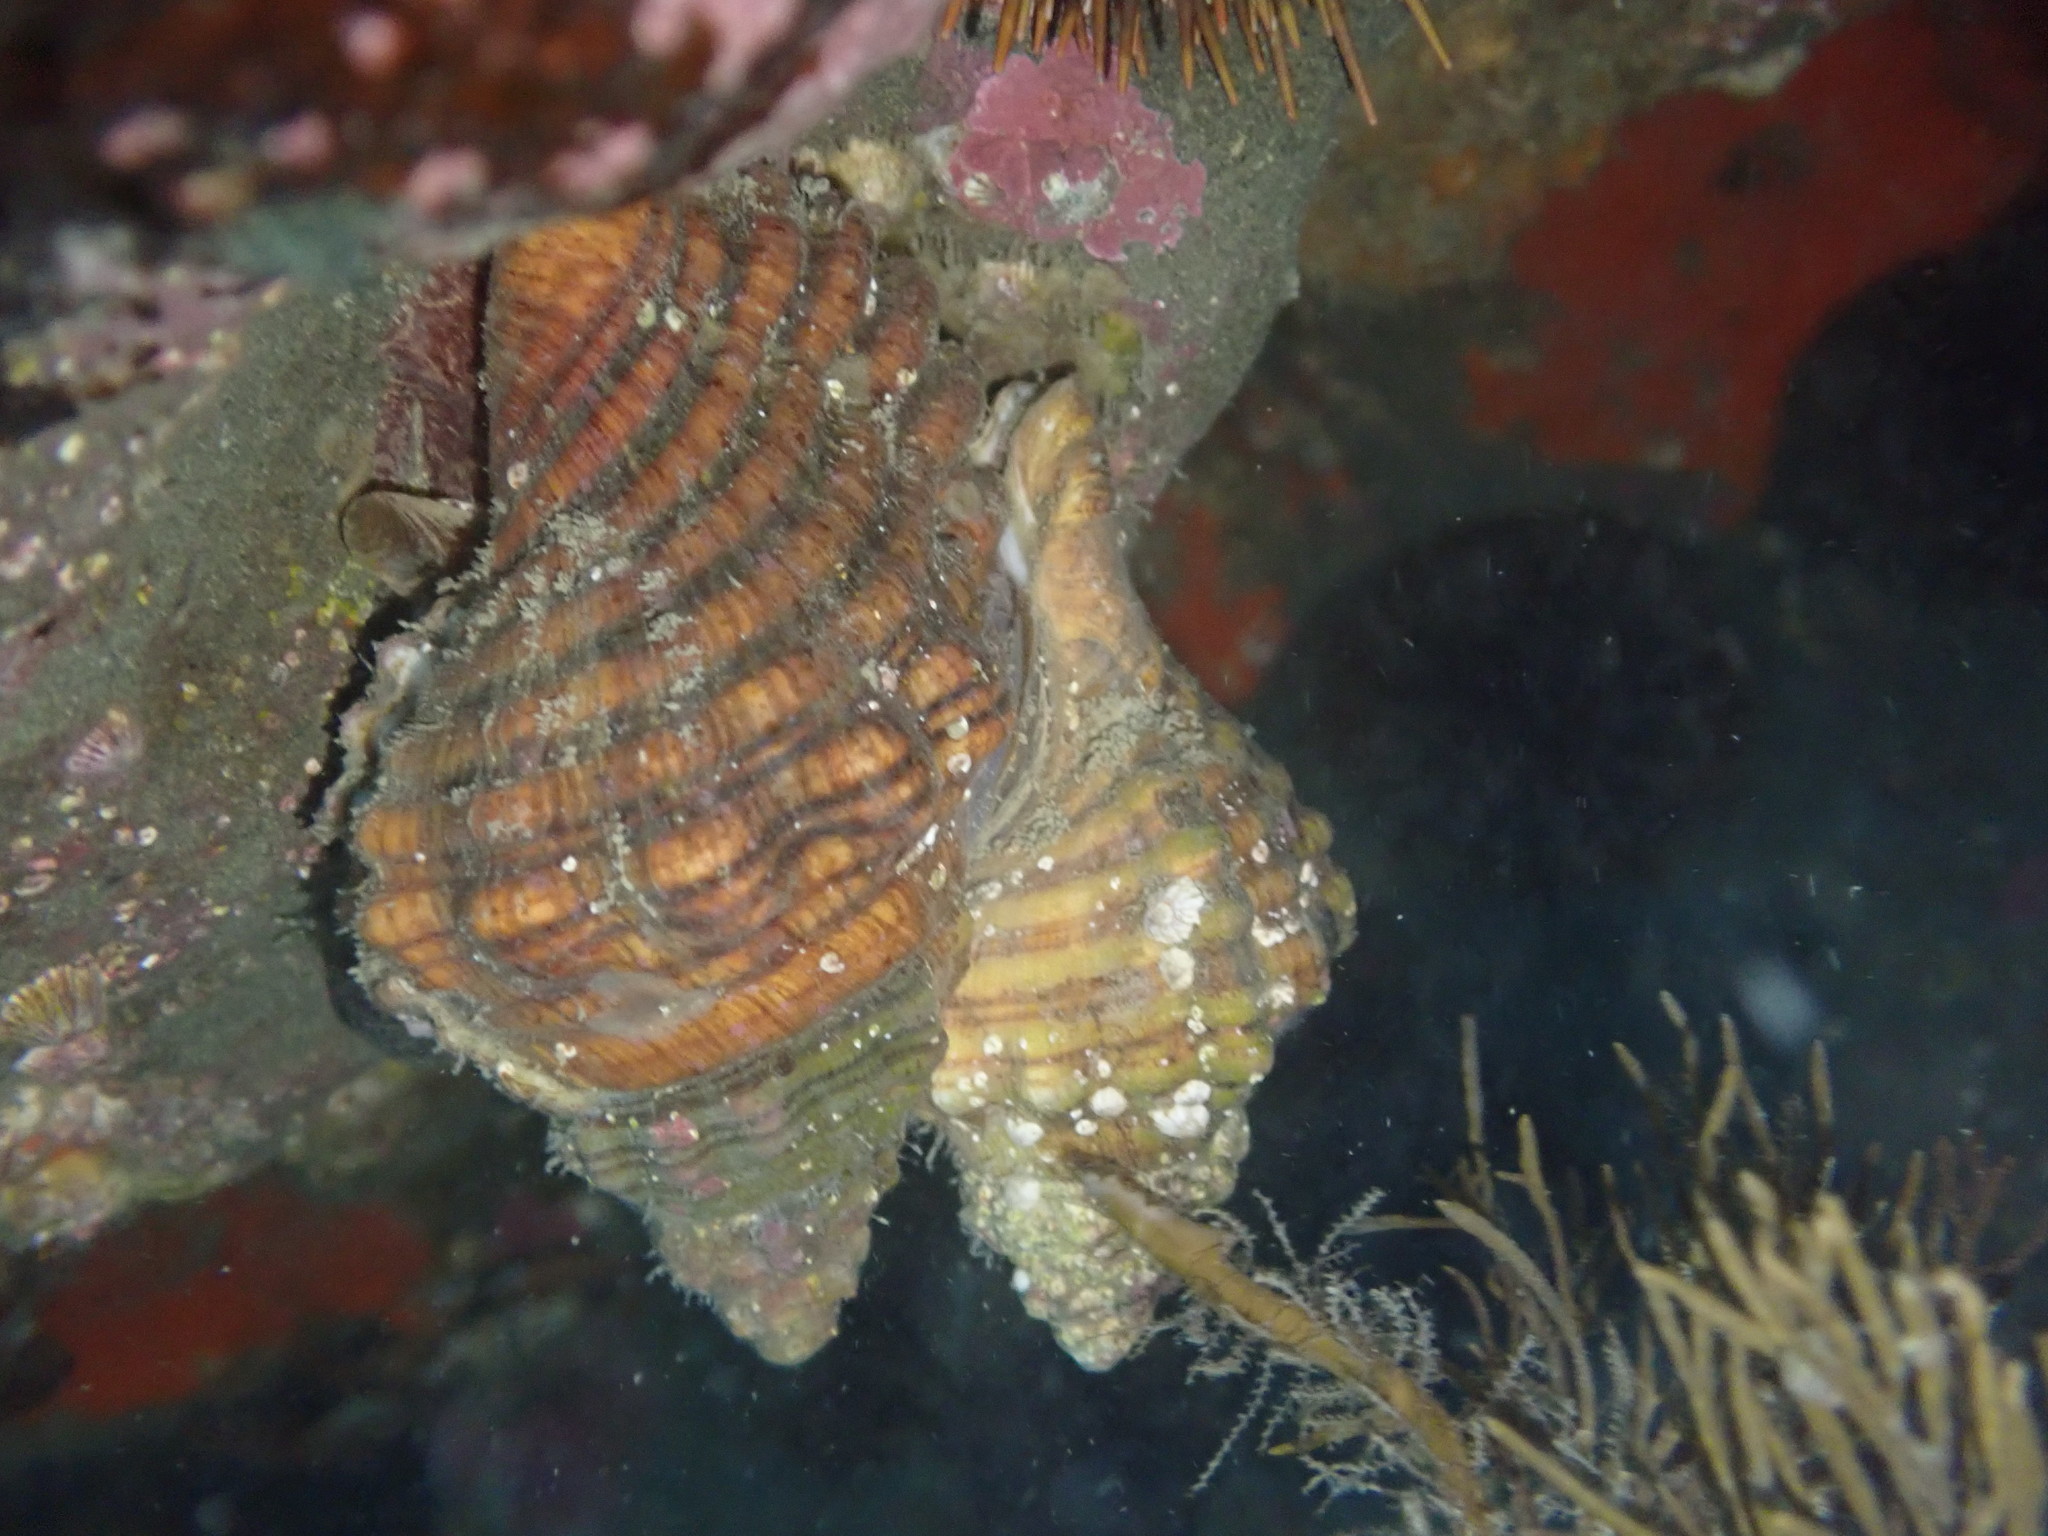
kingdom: Animalia
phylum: Mollusca
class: Gastropoda
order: Littorinimorpha
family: Cymatiidae
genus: Cabestana
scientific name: Cabestana spengleri
